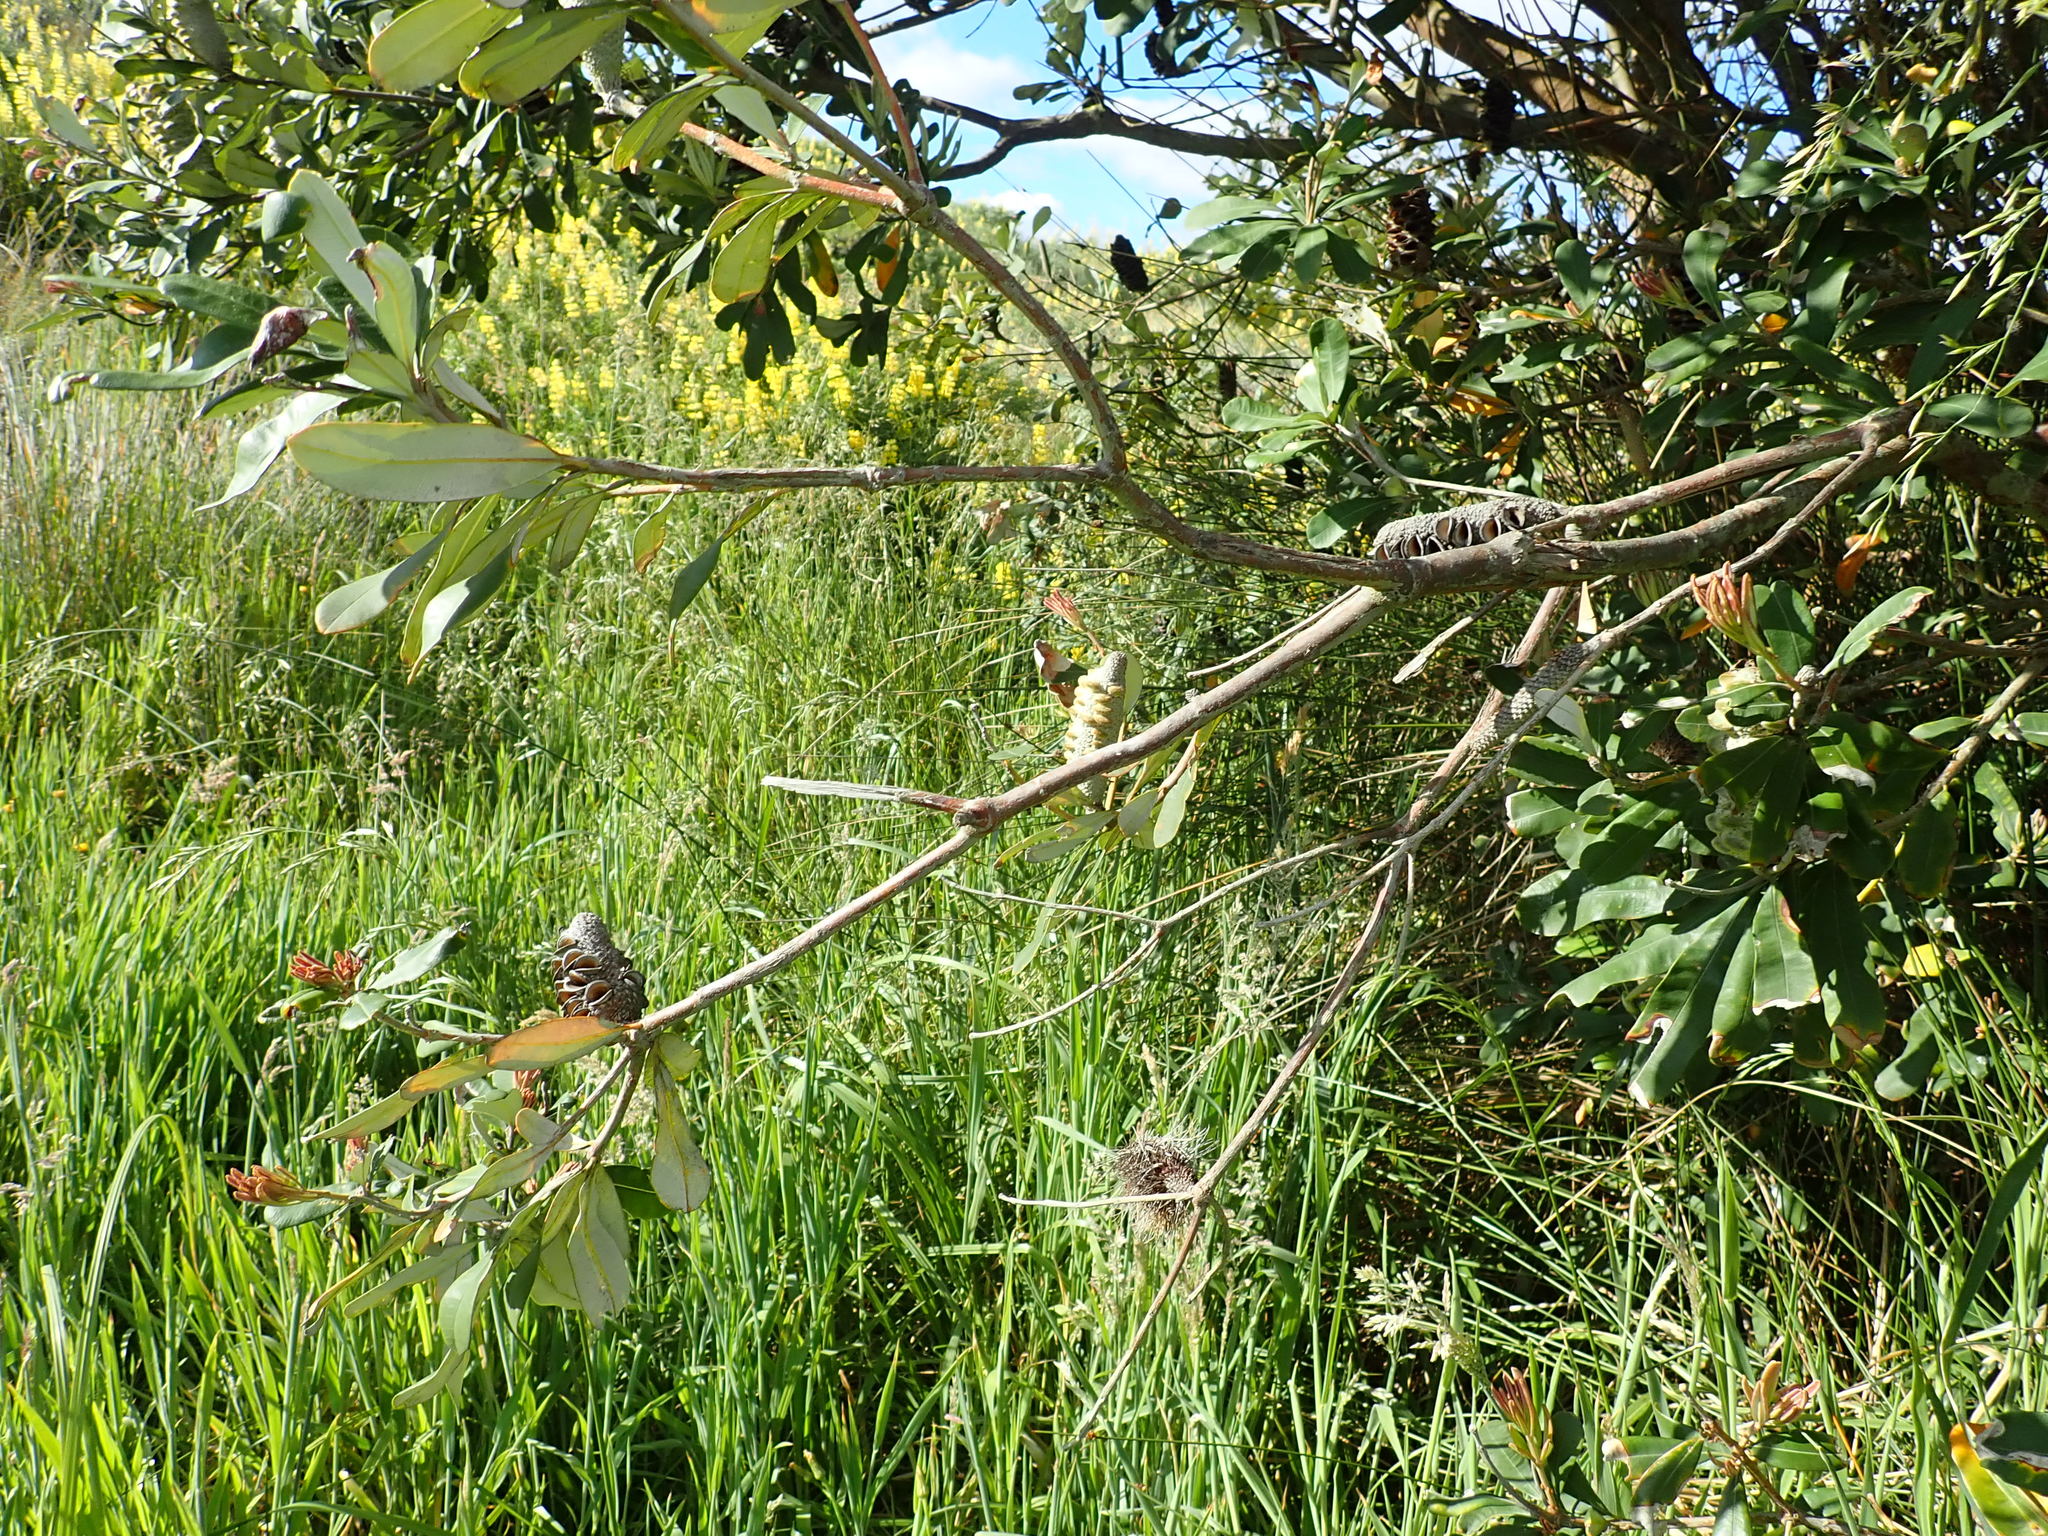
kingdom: Plantae
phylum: Tracheophyta
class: Magnoliopsida
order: Proteales
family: Proteaceae
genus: Banksia
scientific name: Banksia integrifolia
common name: White-honeysuckle
